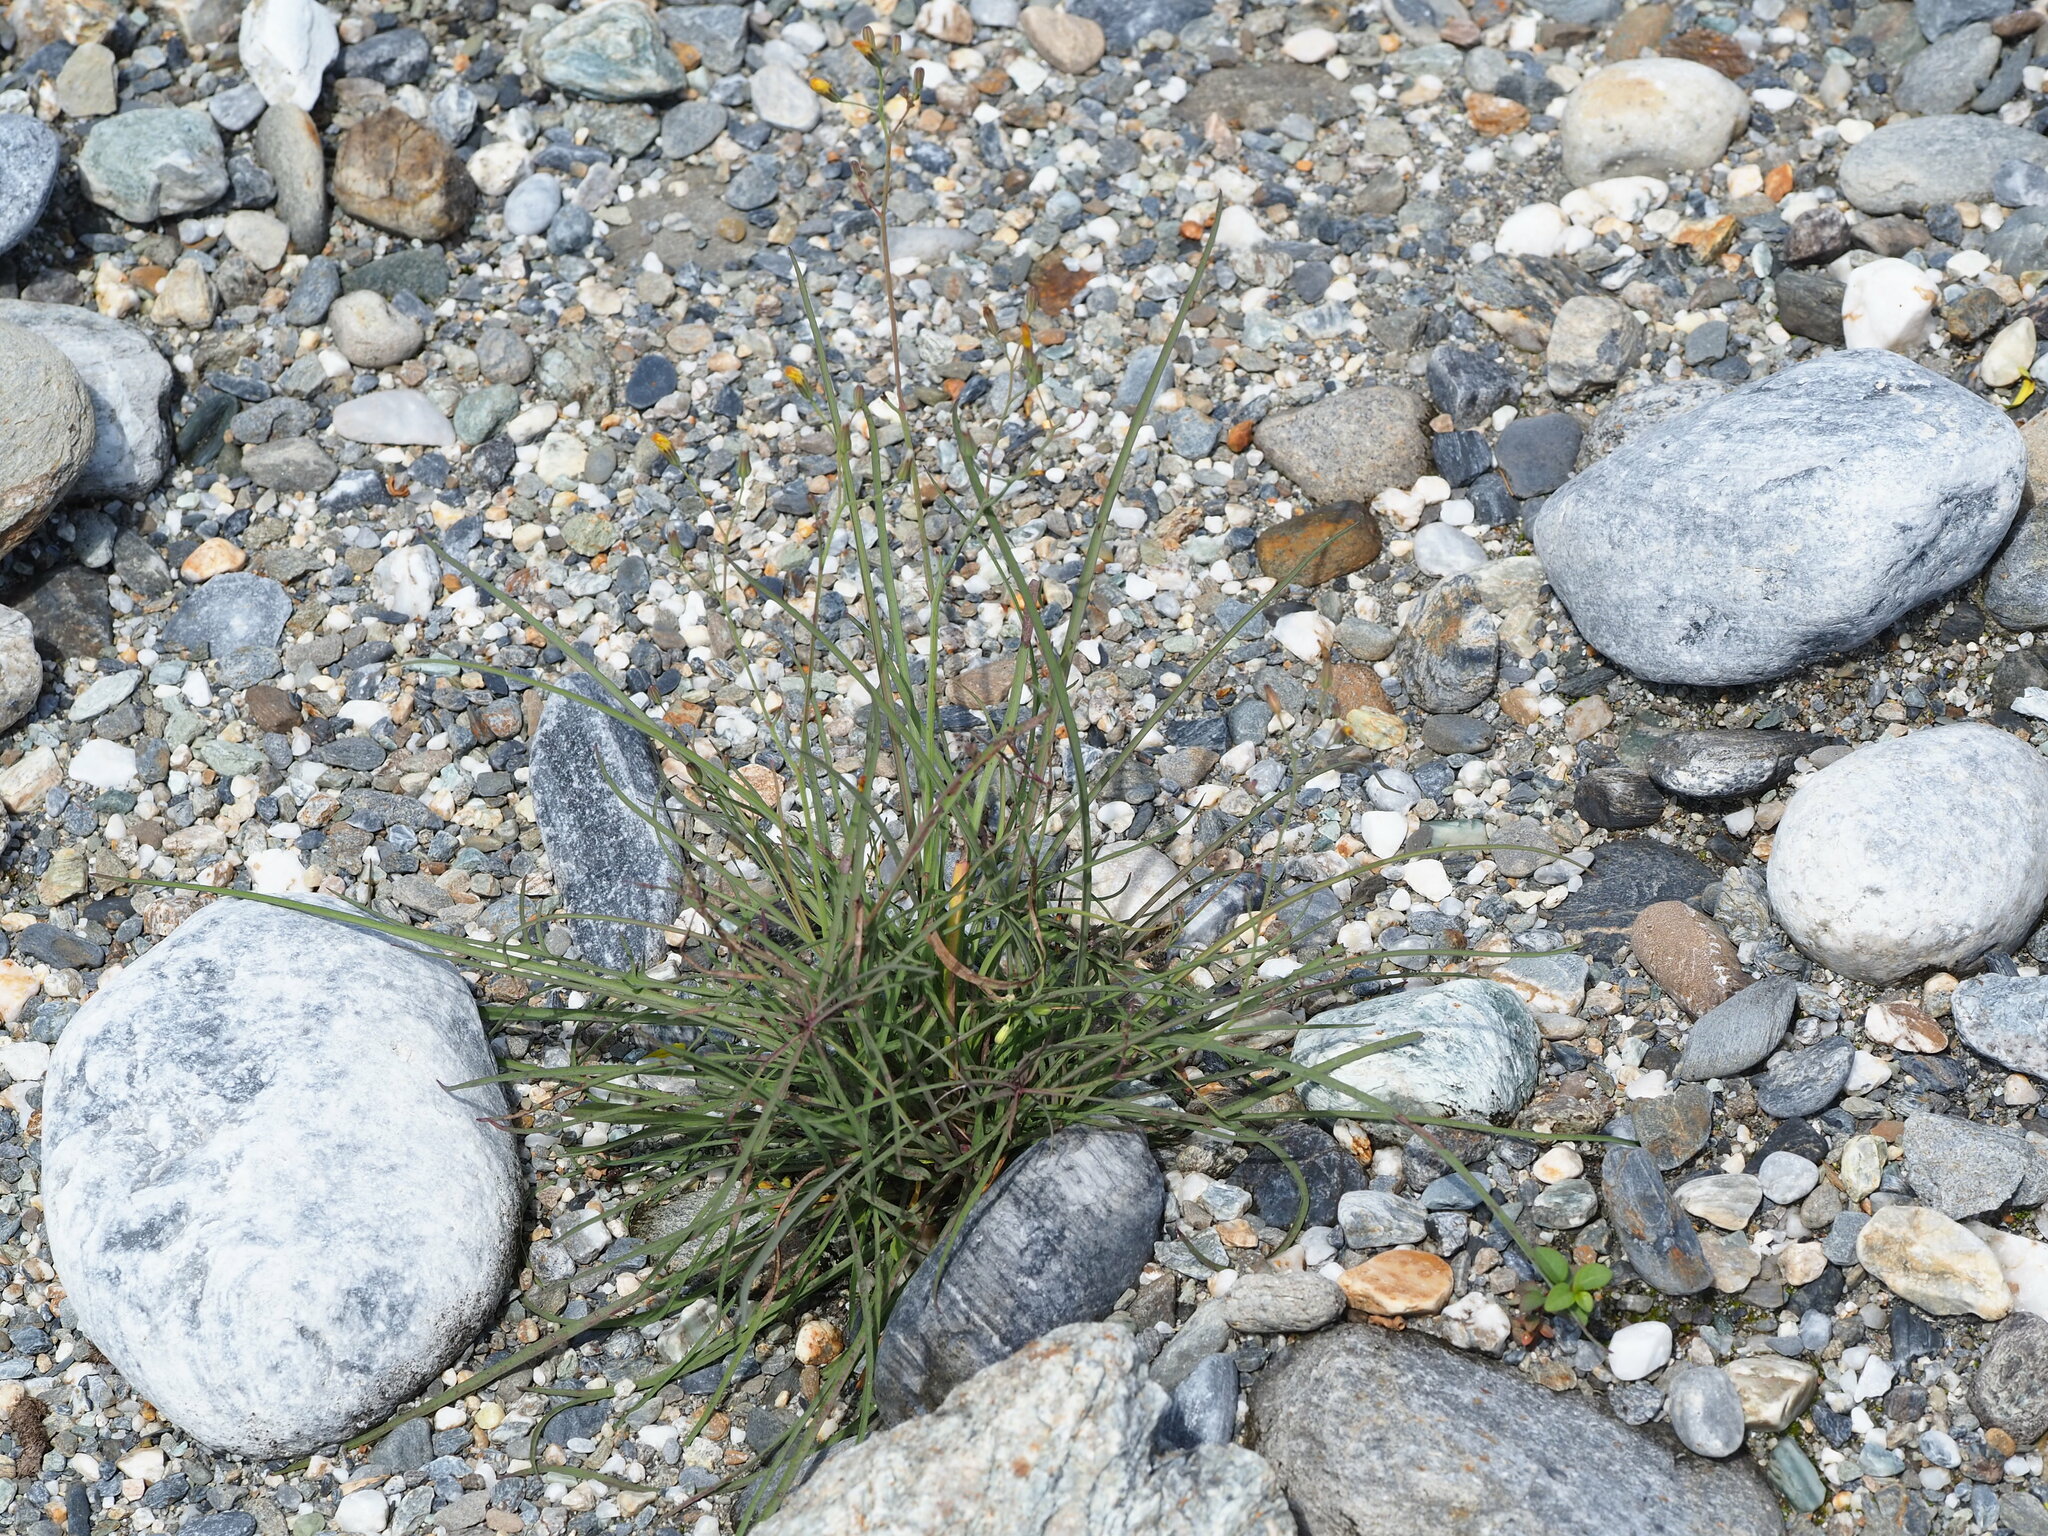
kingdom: Plantae
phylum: Tracheophyta
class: Magnoliopsida
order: Asterales
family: Asteraceae
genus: Ixeris
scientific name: Ixeris tamagawaensis
